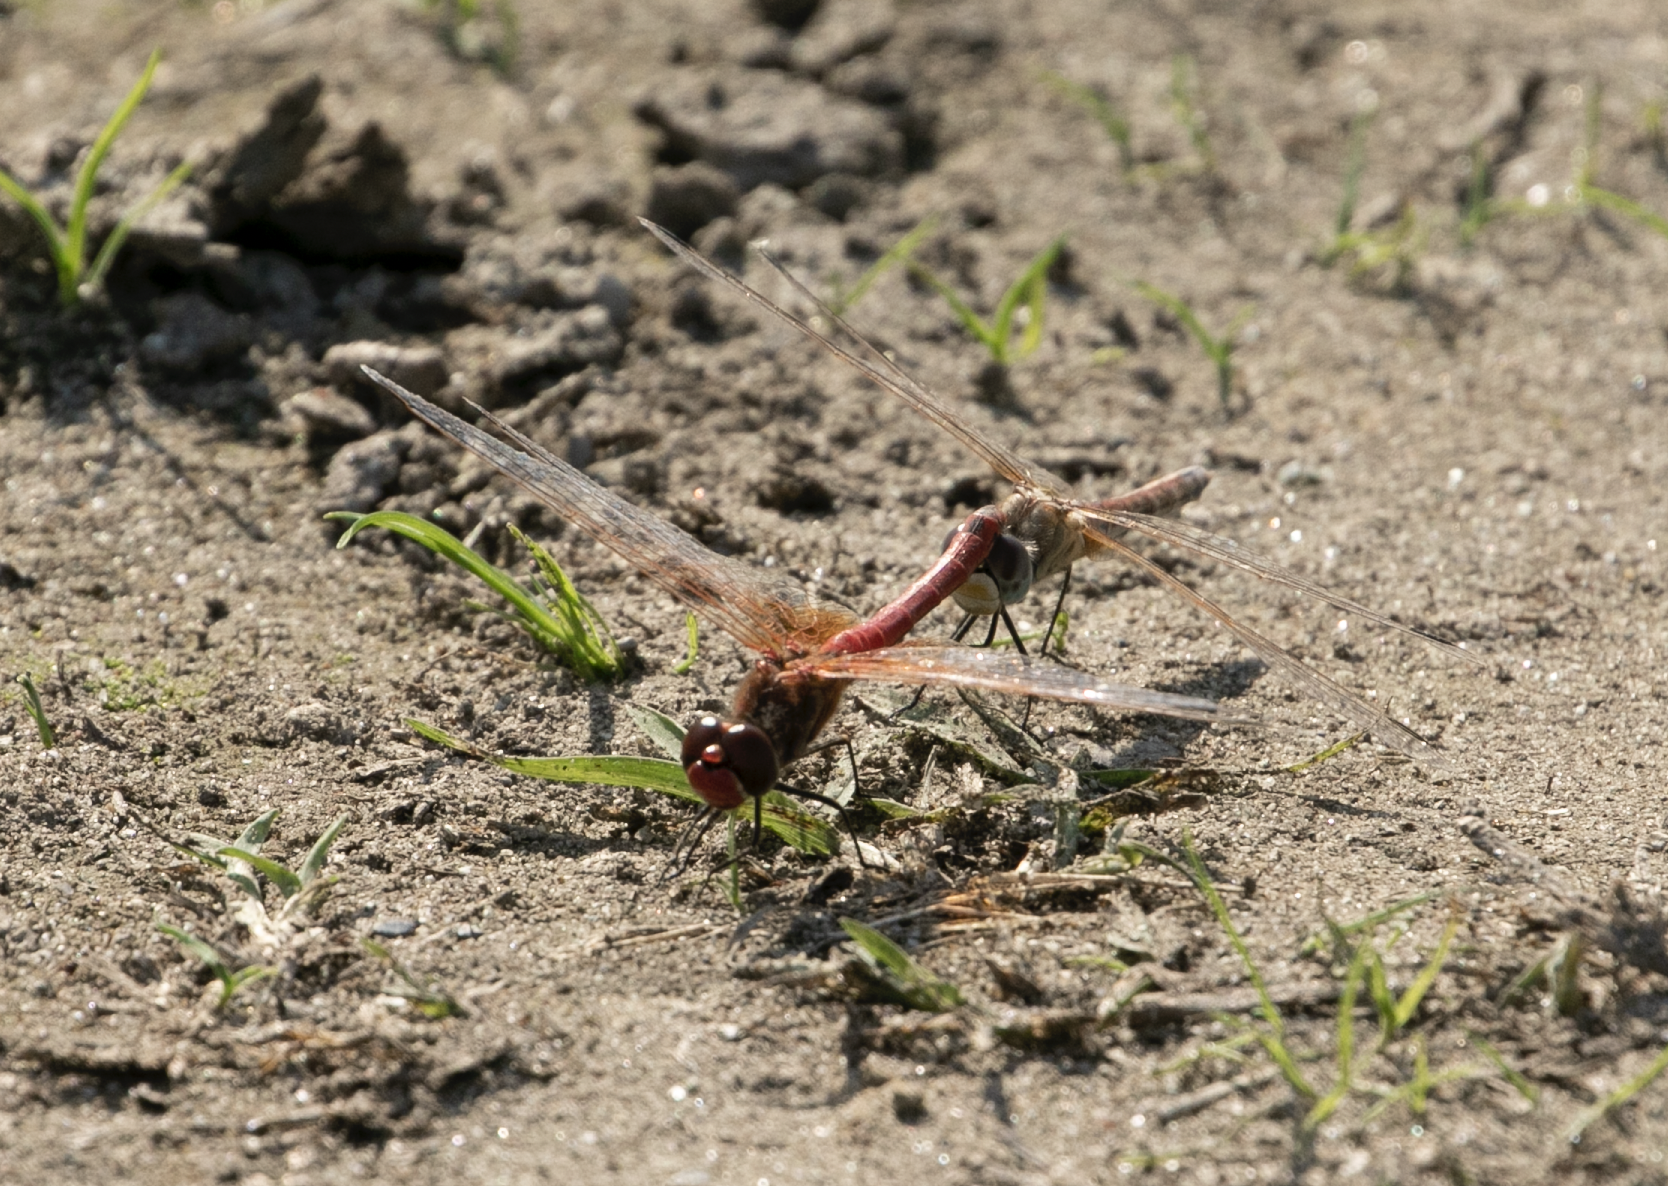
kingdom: Animalia
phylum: Arthropoda
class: Insecta
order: Odonata
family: Libellulidae
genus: Sympetrum
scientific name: Sympetrum fonscolombii
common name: Red-veined darter
